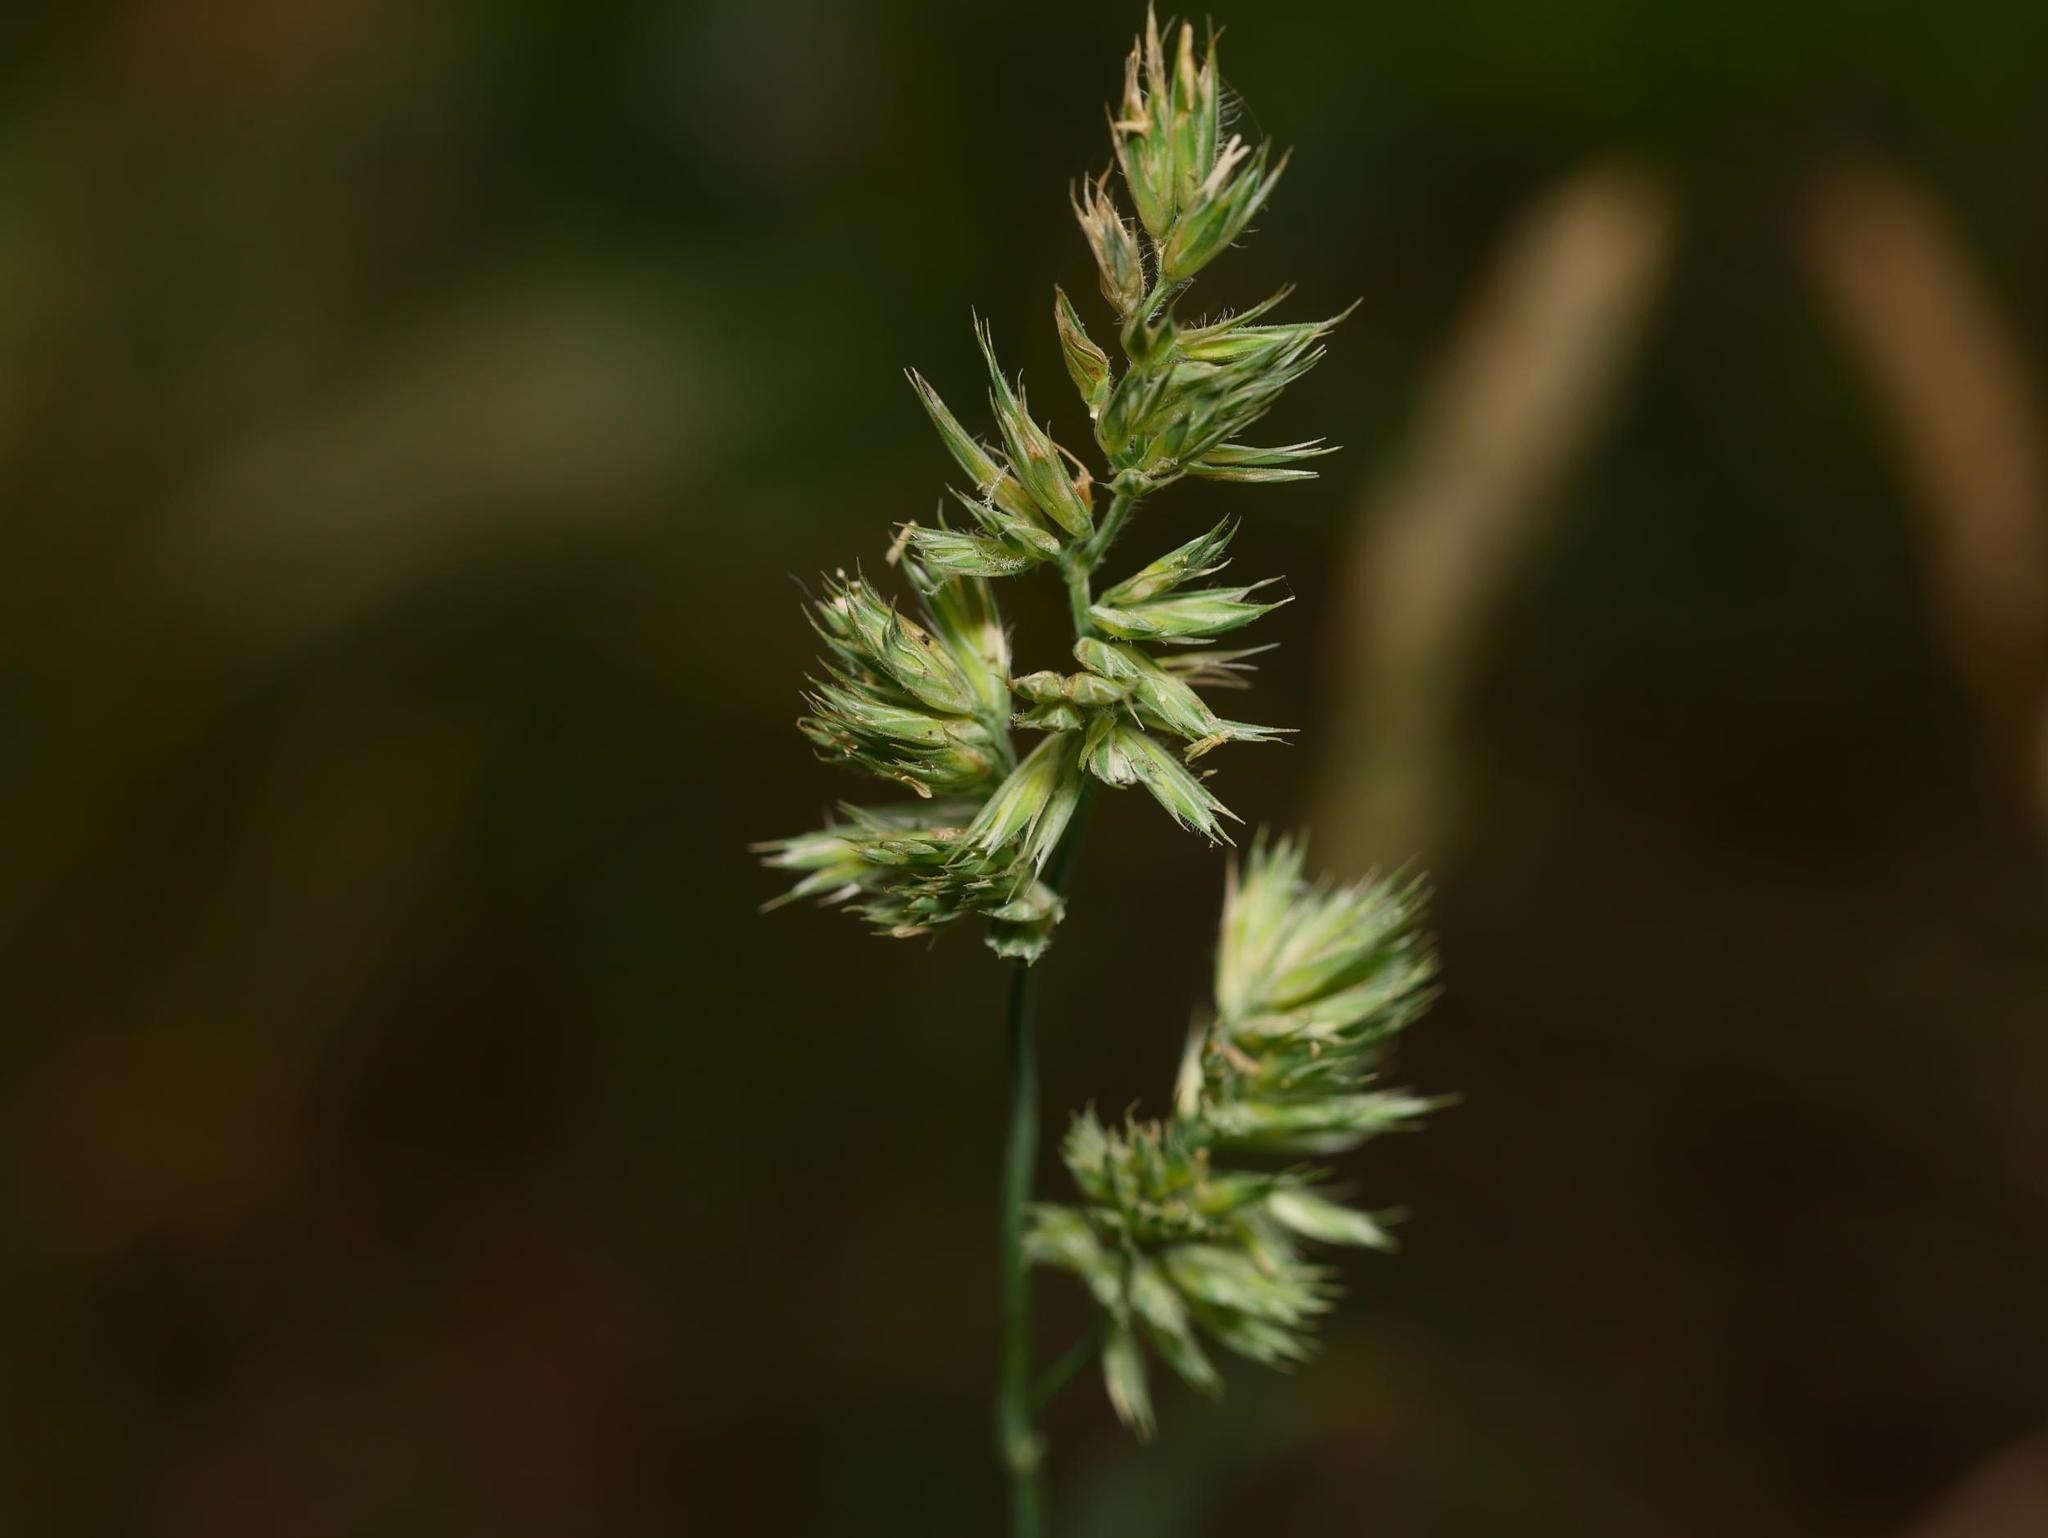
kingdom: Plantae
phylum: Tracheophyta
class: Liliopsida
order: Poales
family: Poaceae
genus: Dactylis
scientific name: Dactylis glomerata
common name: Orchardgrass
